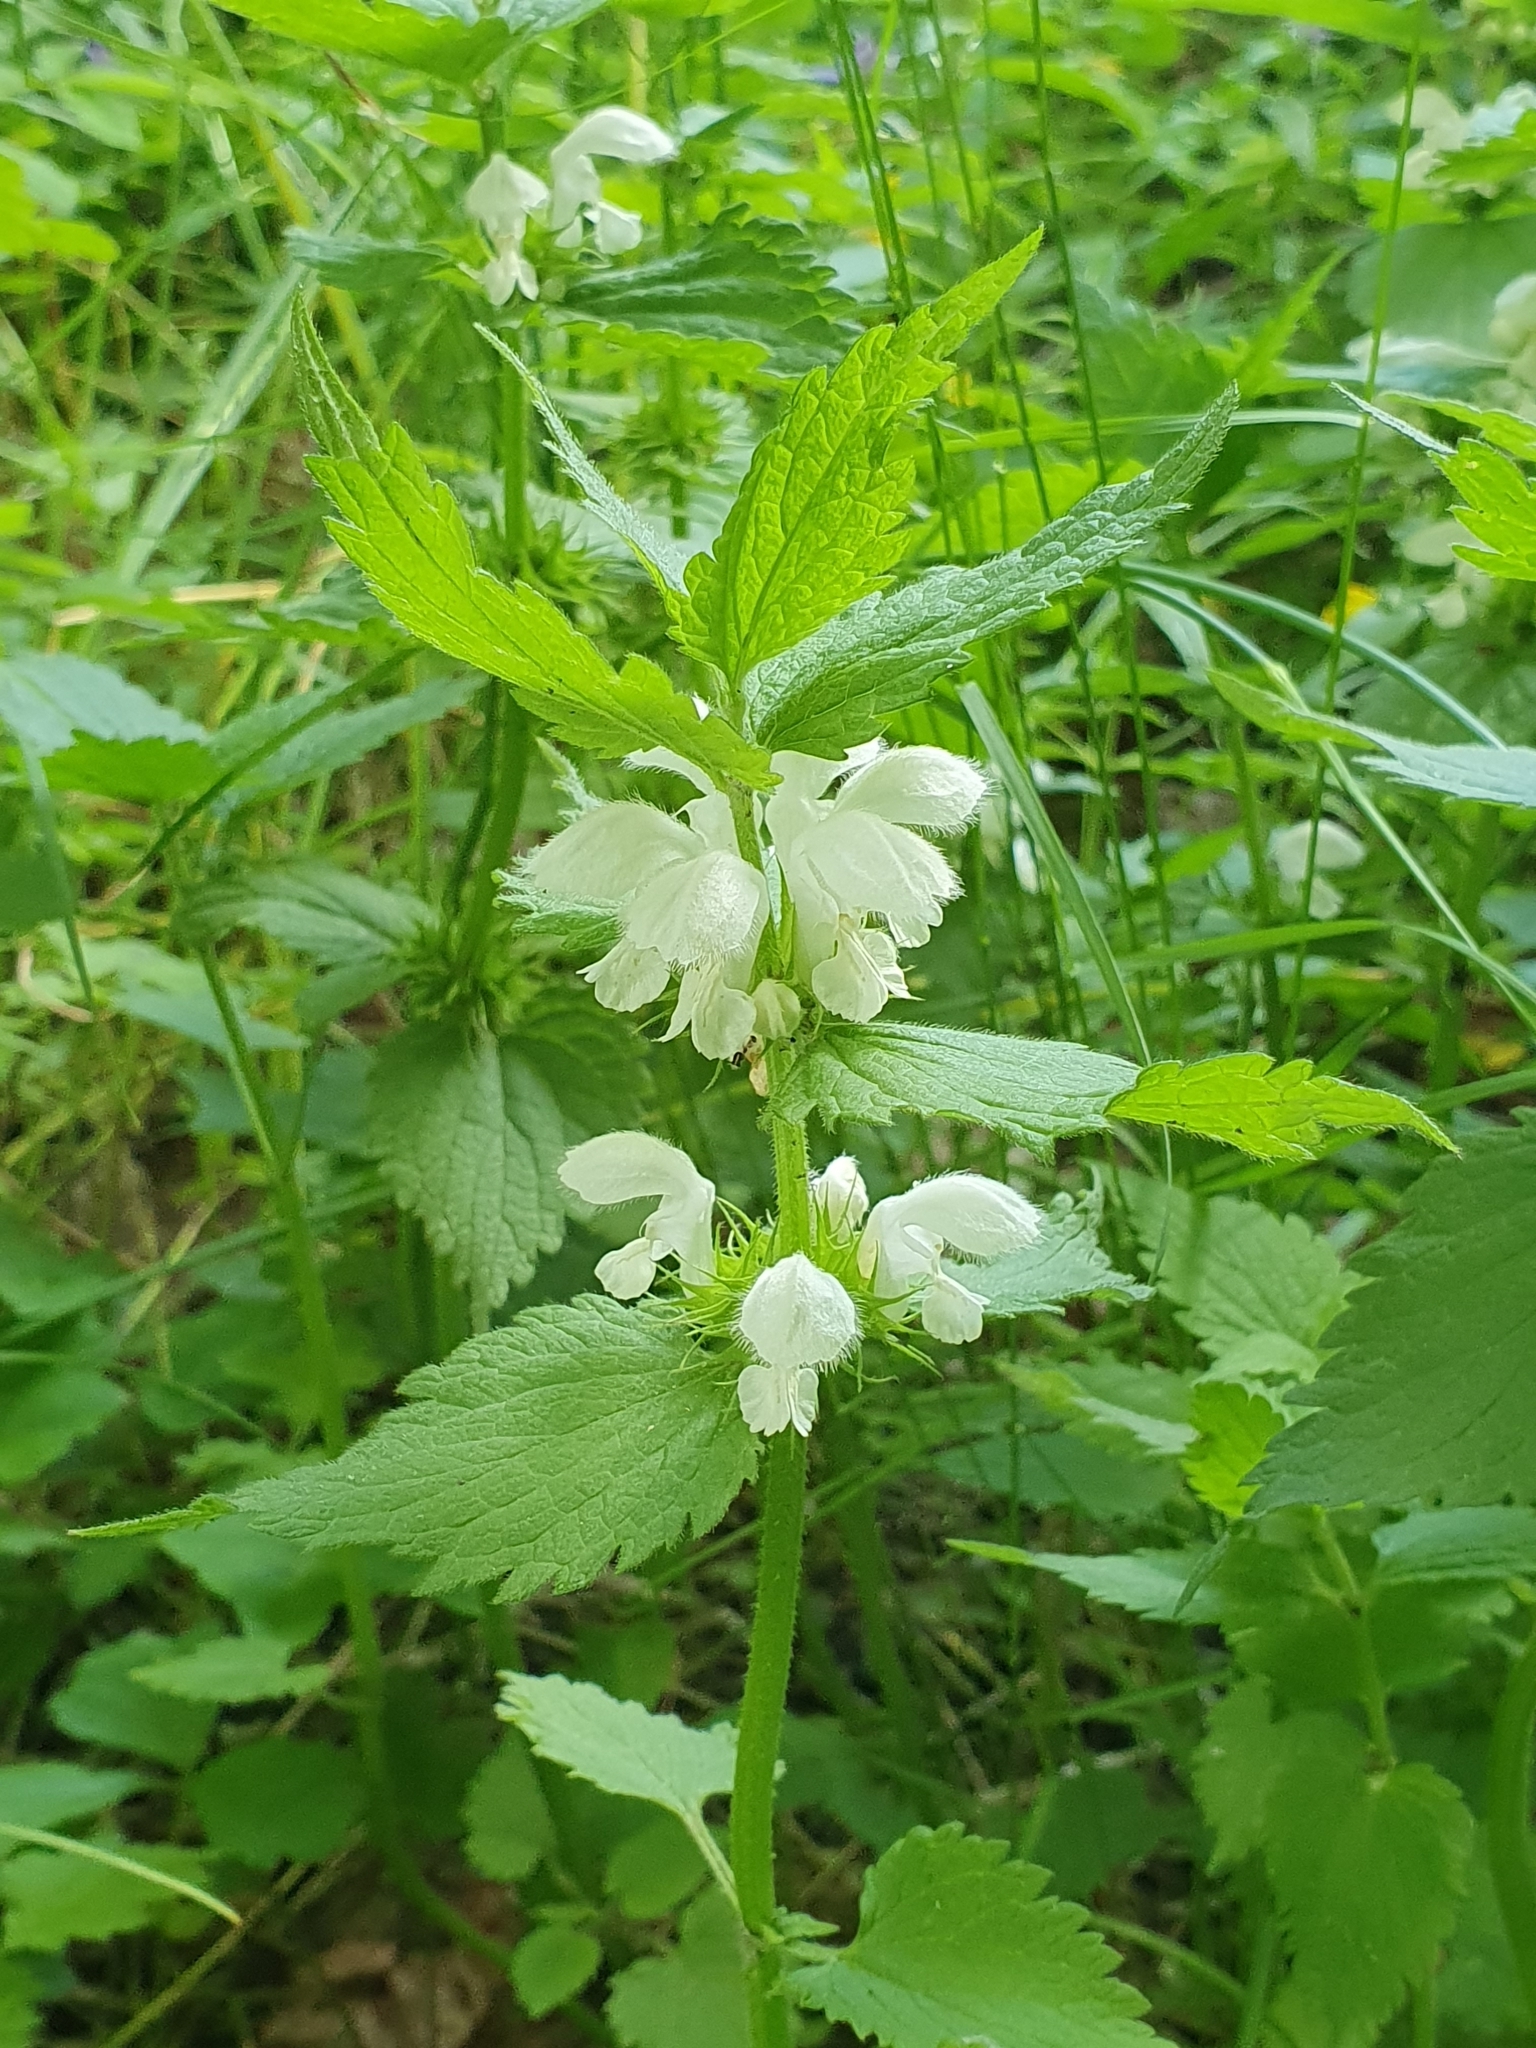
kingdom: Plantae
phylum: Tracheophyta
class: Magnoliopsida
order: Lamiales
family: Lamiaceae
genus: Lamium
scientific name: Lamium album
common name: White dead-nettle
